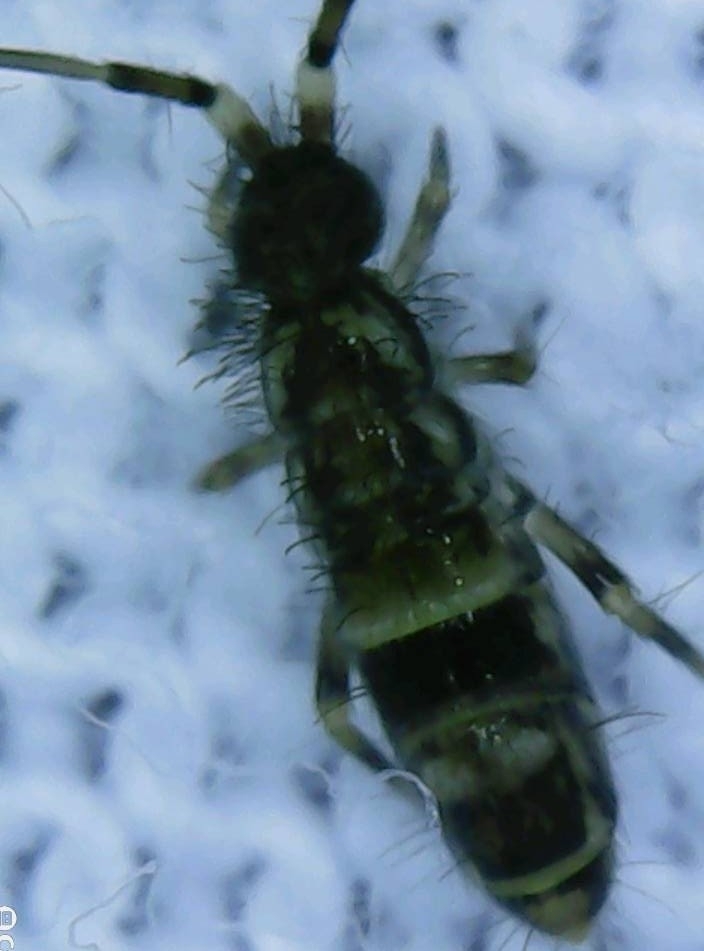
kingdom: Animalia
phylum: Arthropoda
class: Collembola
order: Entomobryomorpha
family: Orchesellidae
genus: Orchesella
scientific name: Orchesella cincta
